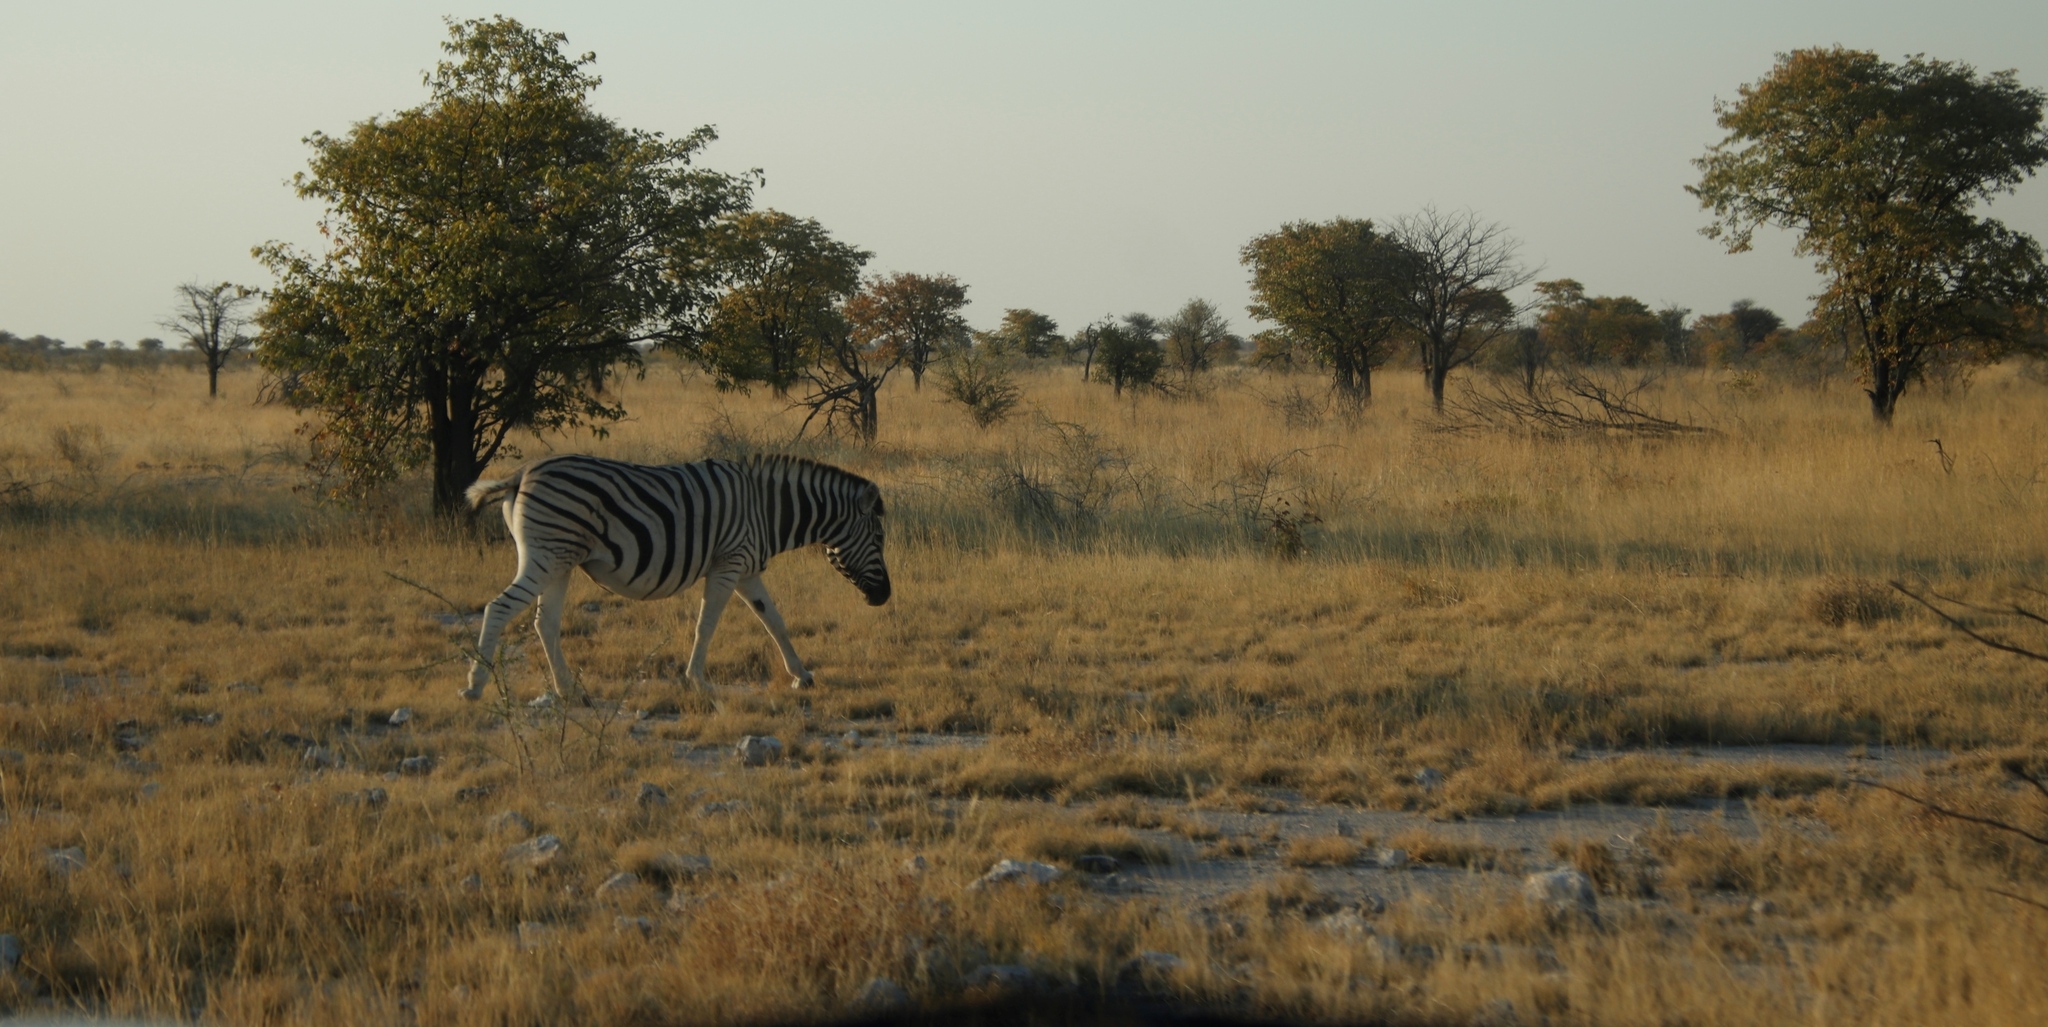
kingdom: Animalia
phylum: Chordata
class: Mammalia
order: Perissodactyla
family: Equidae
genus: Equus
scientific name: Equus quagga
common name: Plains zebra
